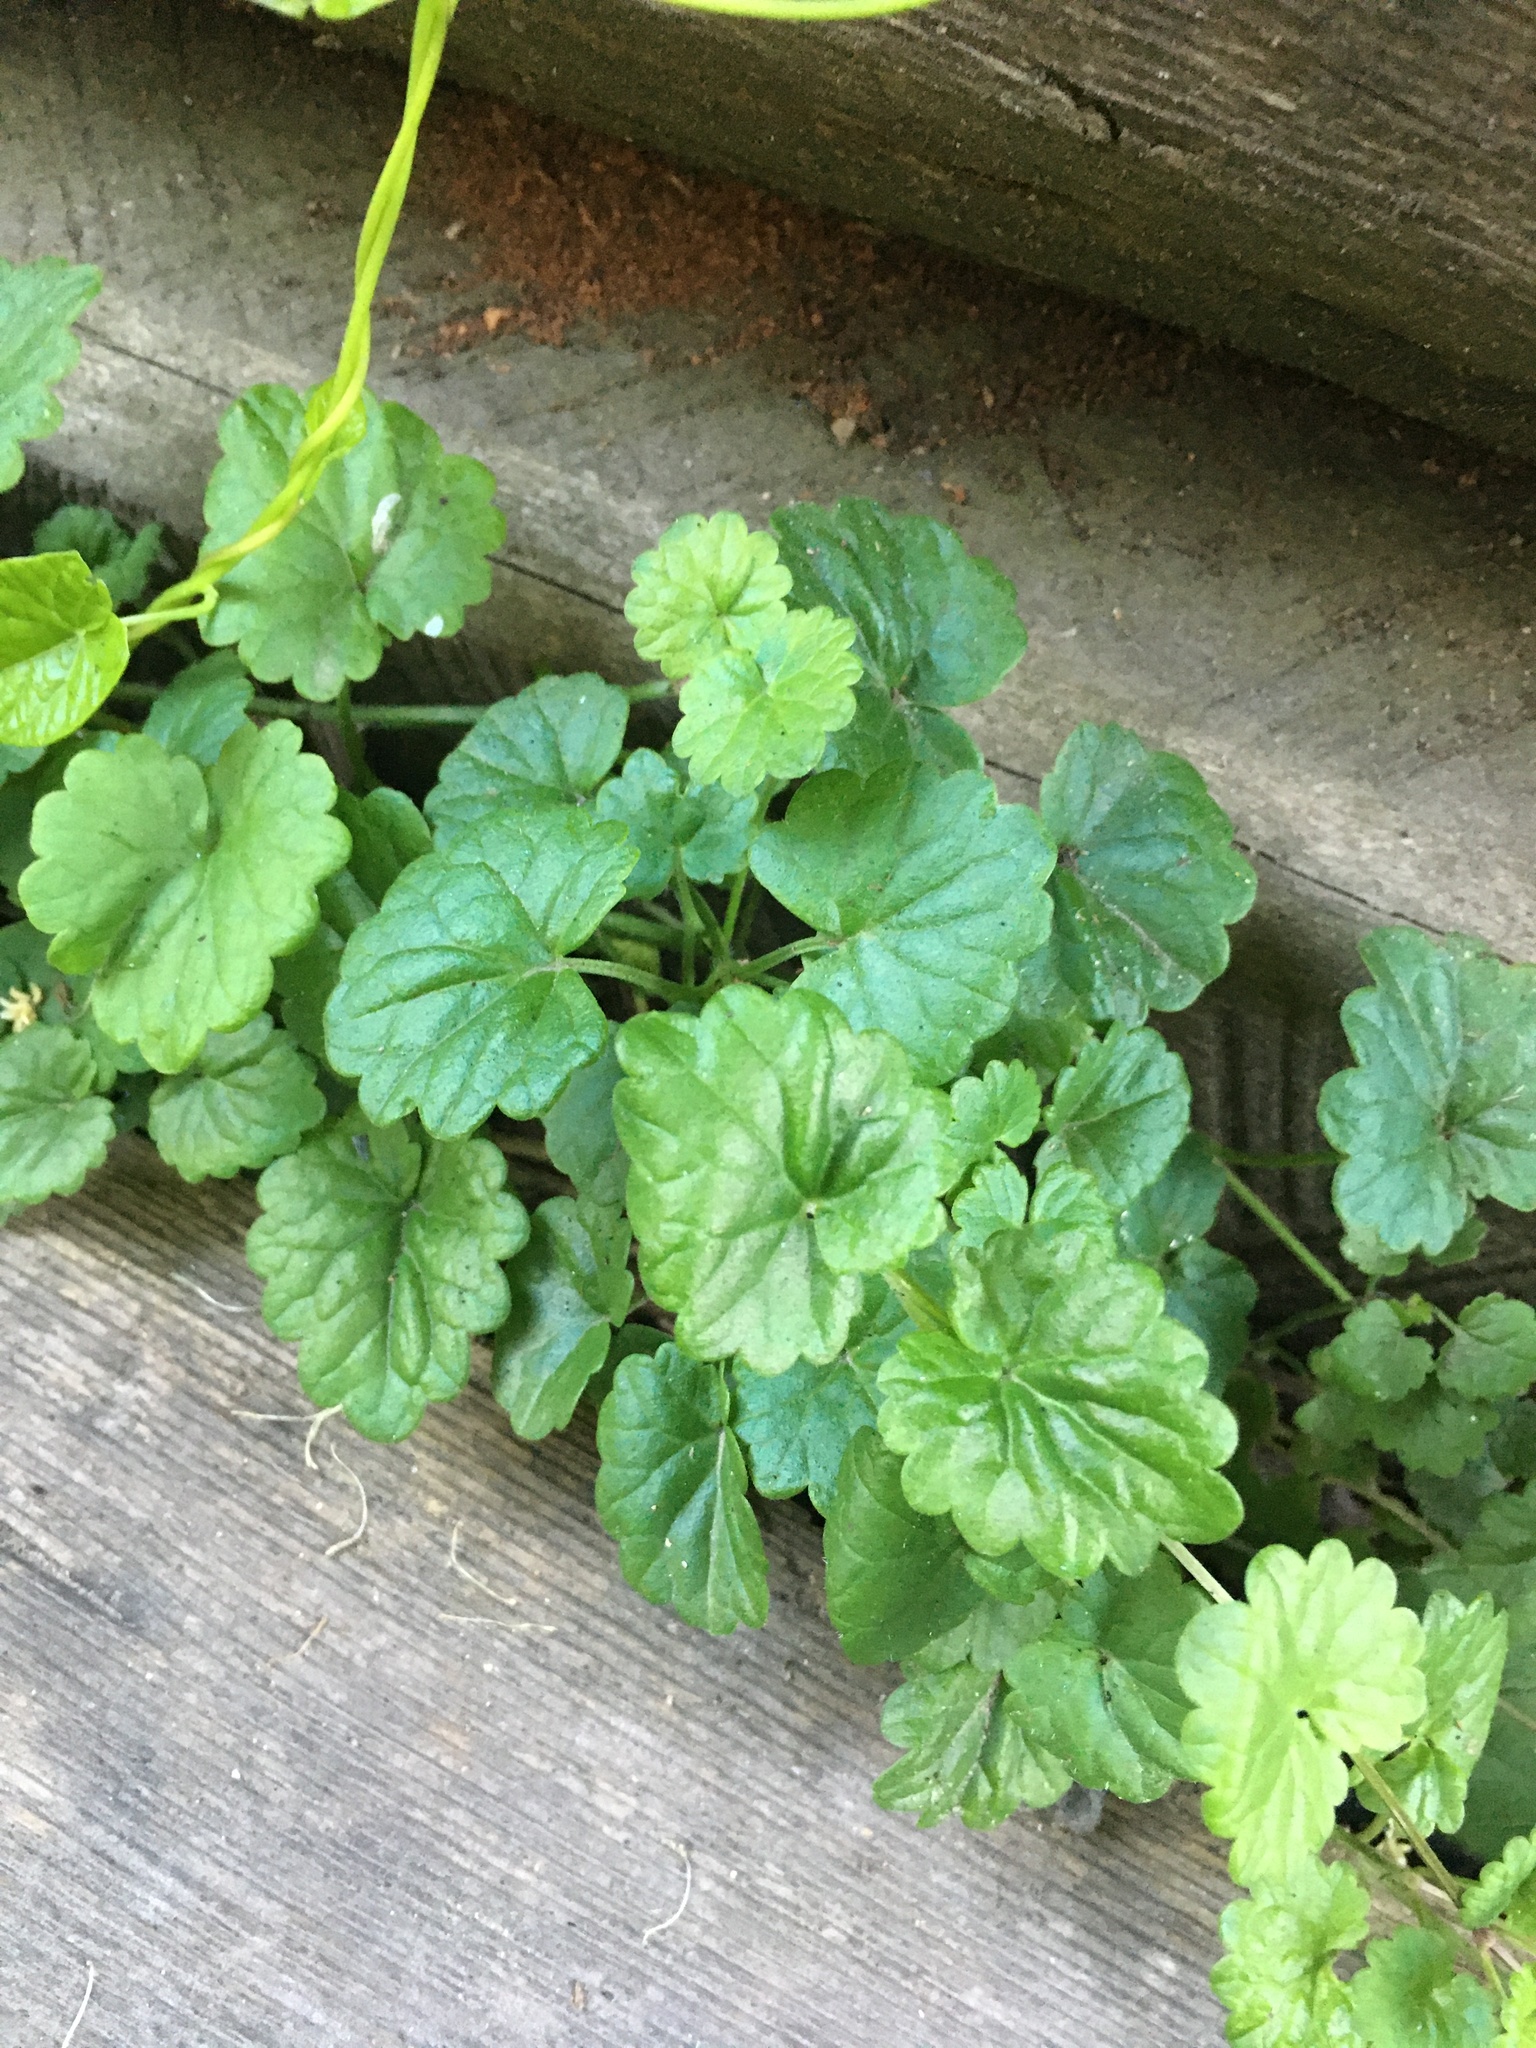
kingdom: Plantae
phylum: Tracheophyta
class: Magnoliopsida
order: Lamiales
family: Lamiaceae
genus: Glechoma
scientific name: Glechoma hederacea
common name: Ground ivy
